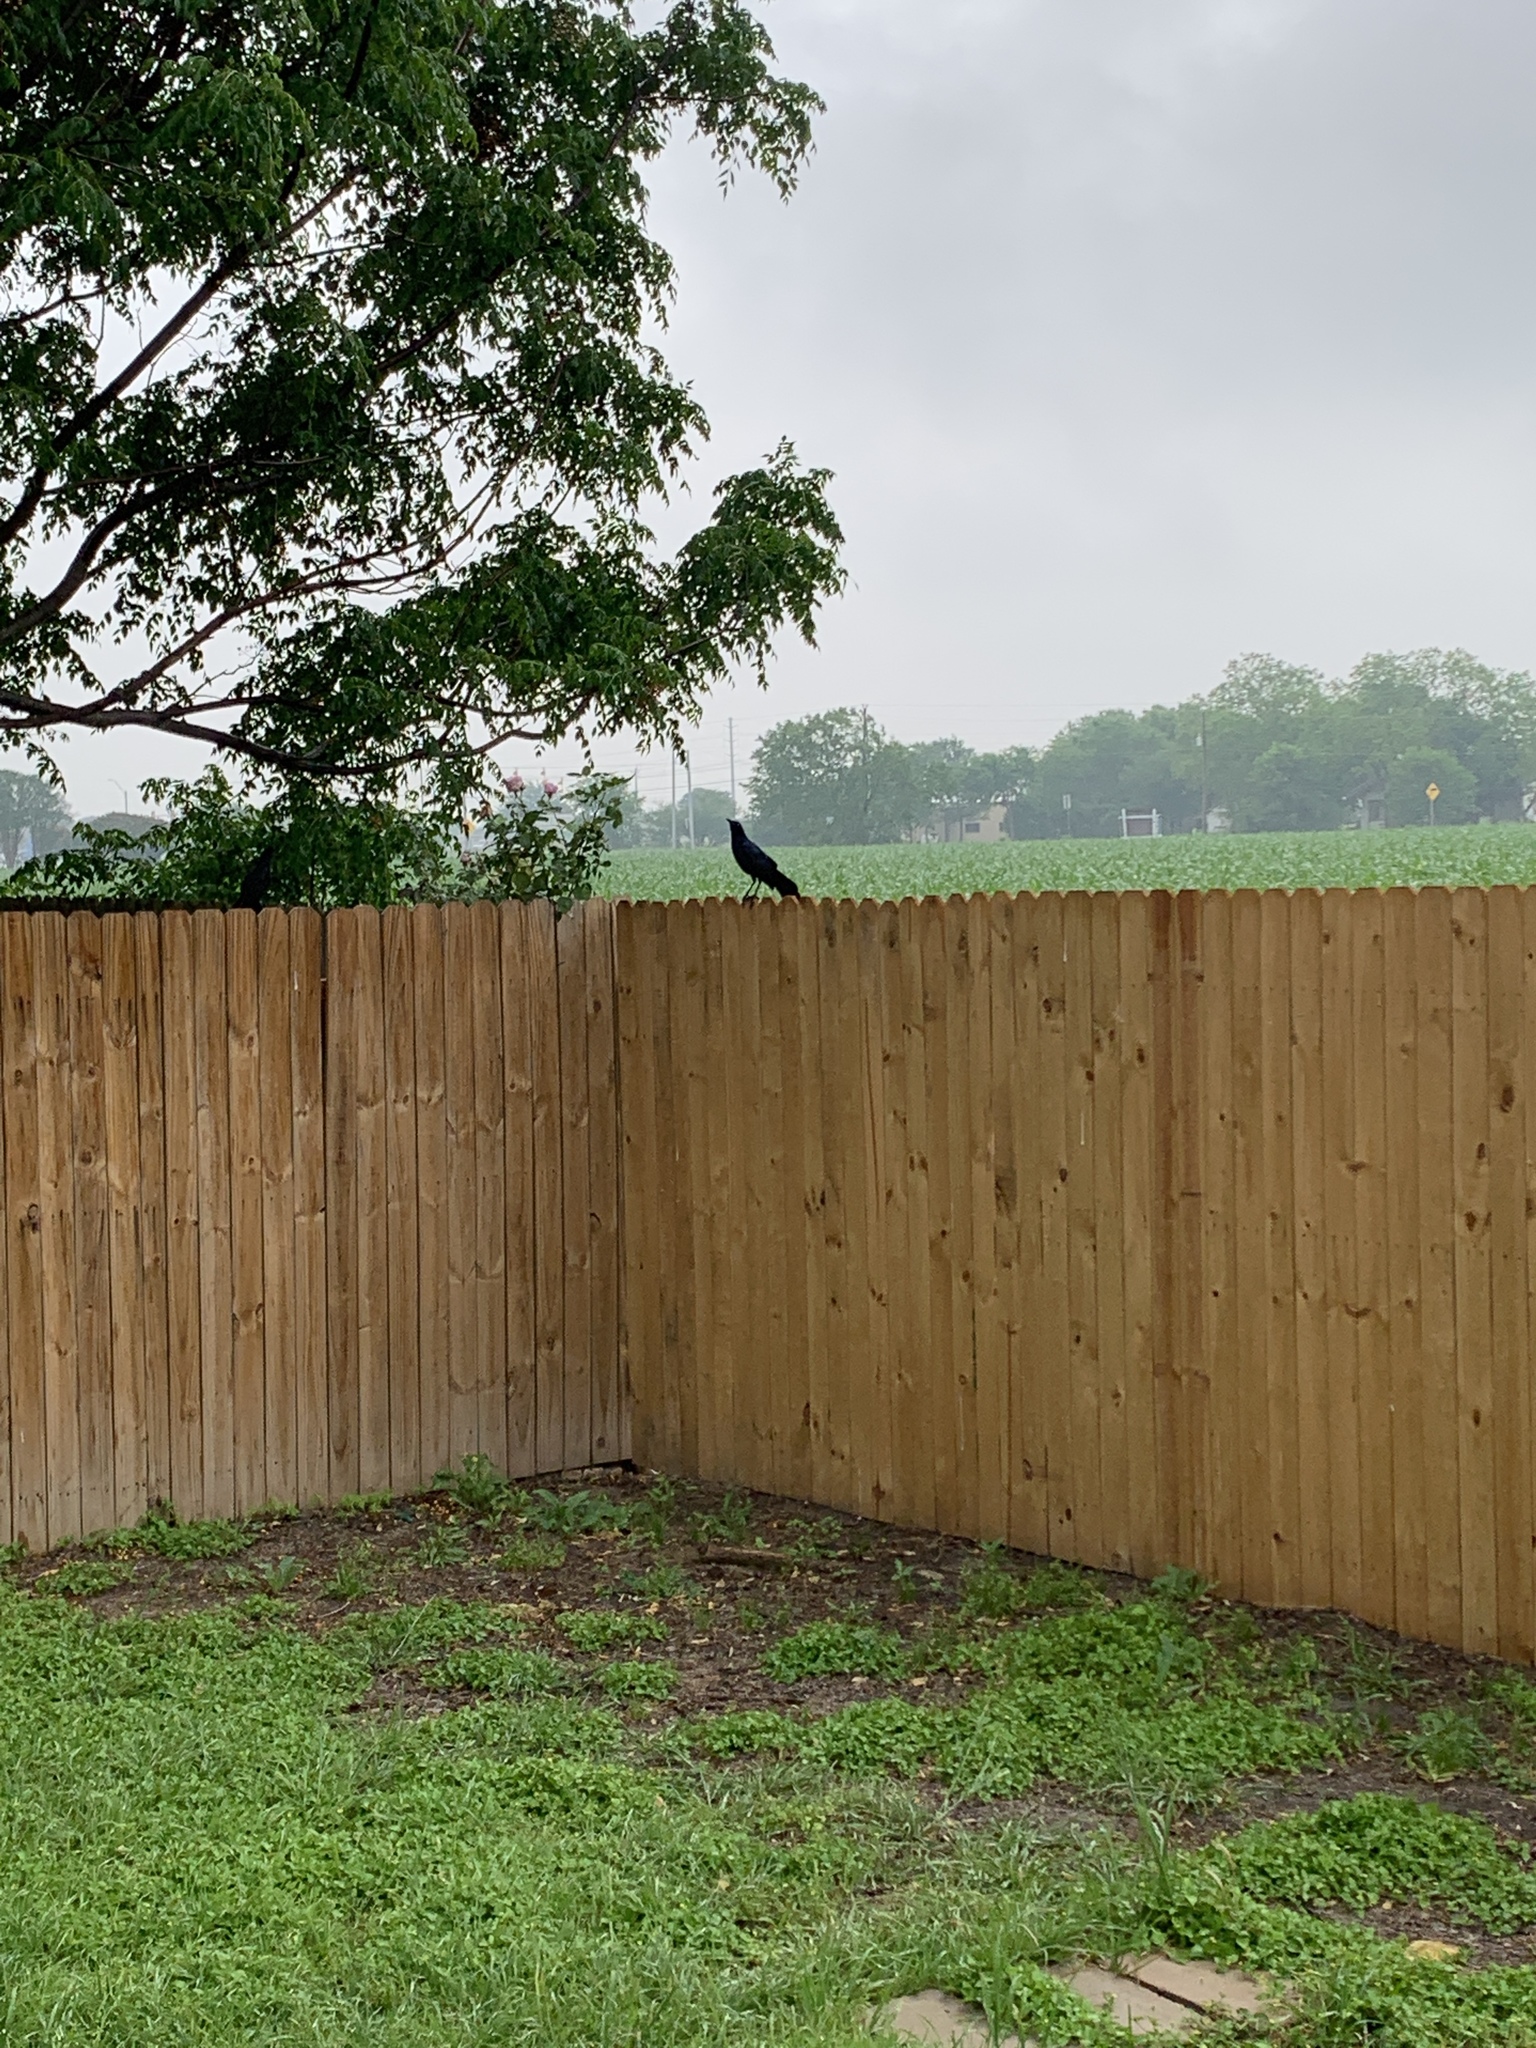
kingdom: Animalia
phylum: Chordata
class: Aves
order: Passeriformes
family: Icteridae
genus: Quiscalus
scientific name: Quiscalus mexicanus
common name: Great-tailed grackle
